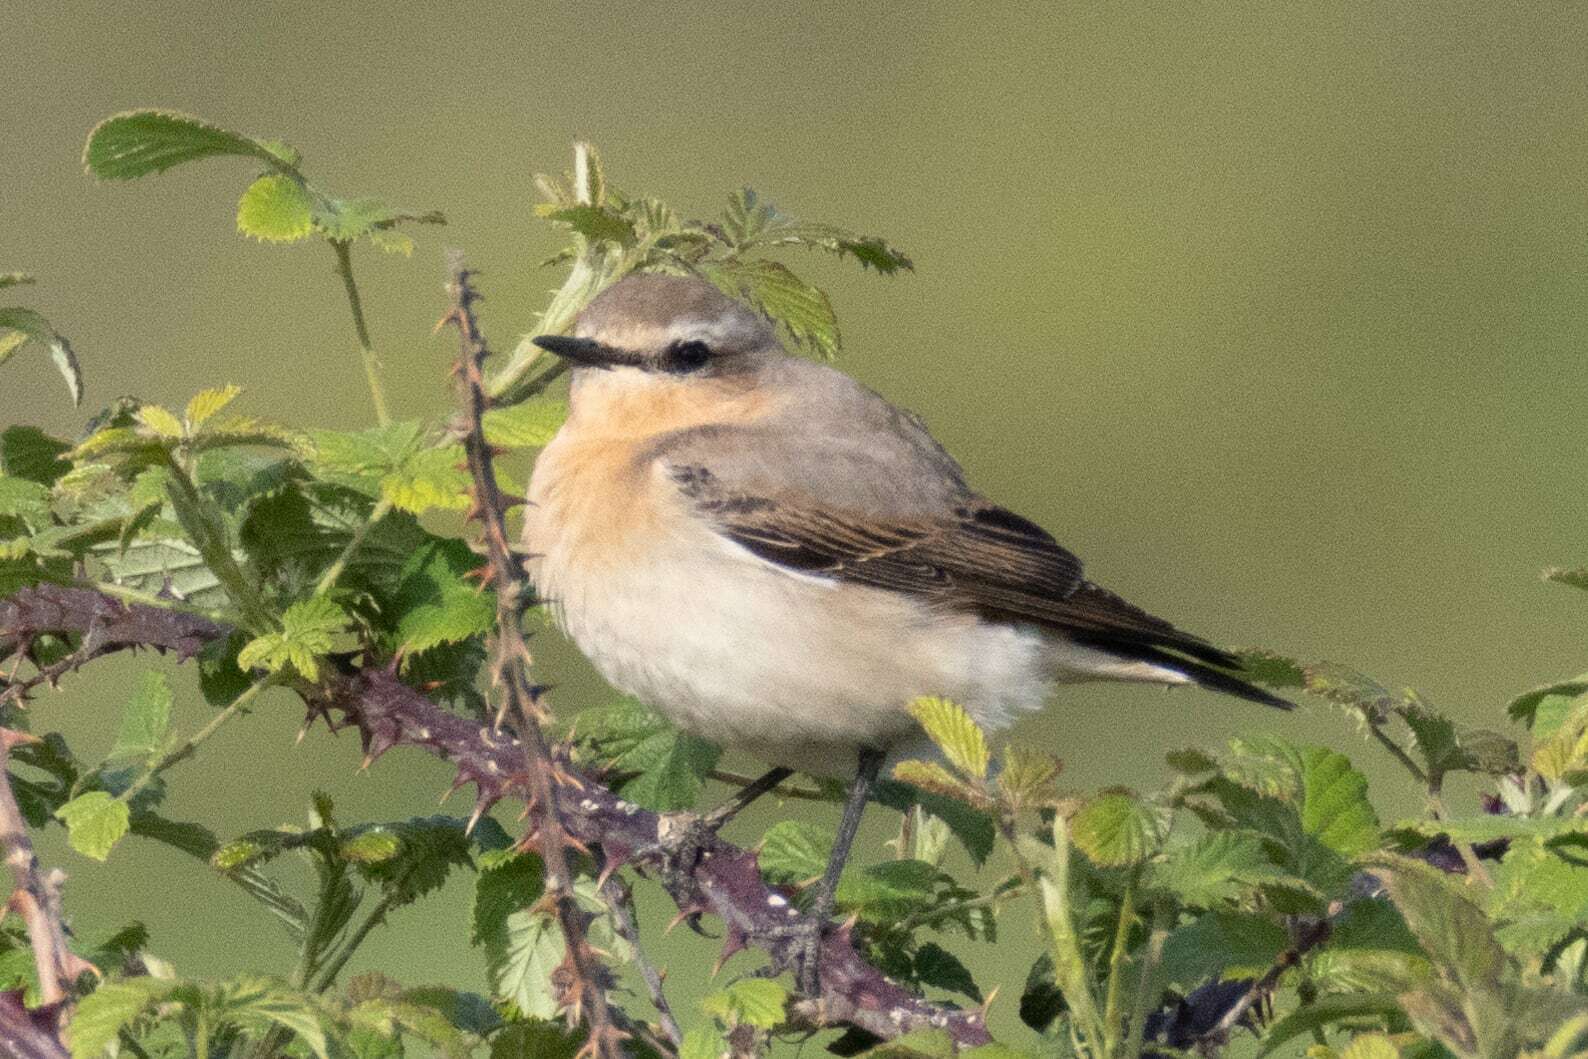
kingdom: Animalia
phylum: Chordata
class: Aves
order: Passeriformes
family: Muscicapidae
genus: Oenanthe
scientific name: Oenanthe oenanthe
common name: Northern wheatear
